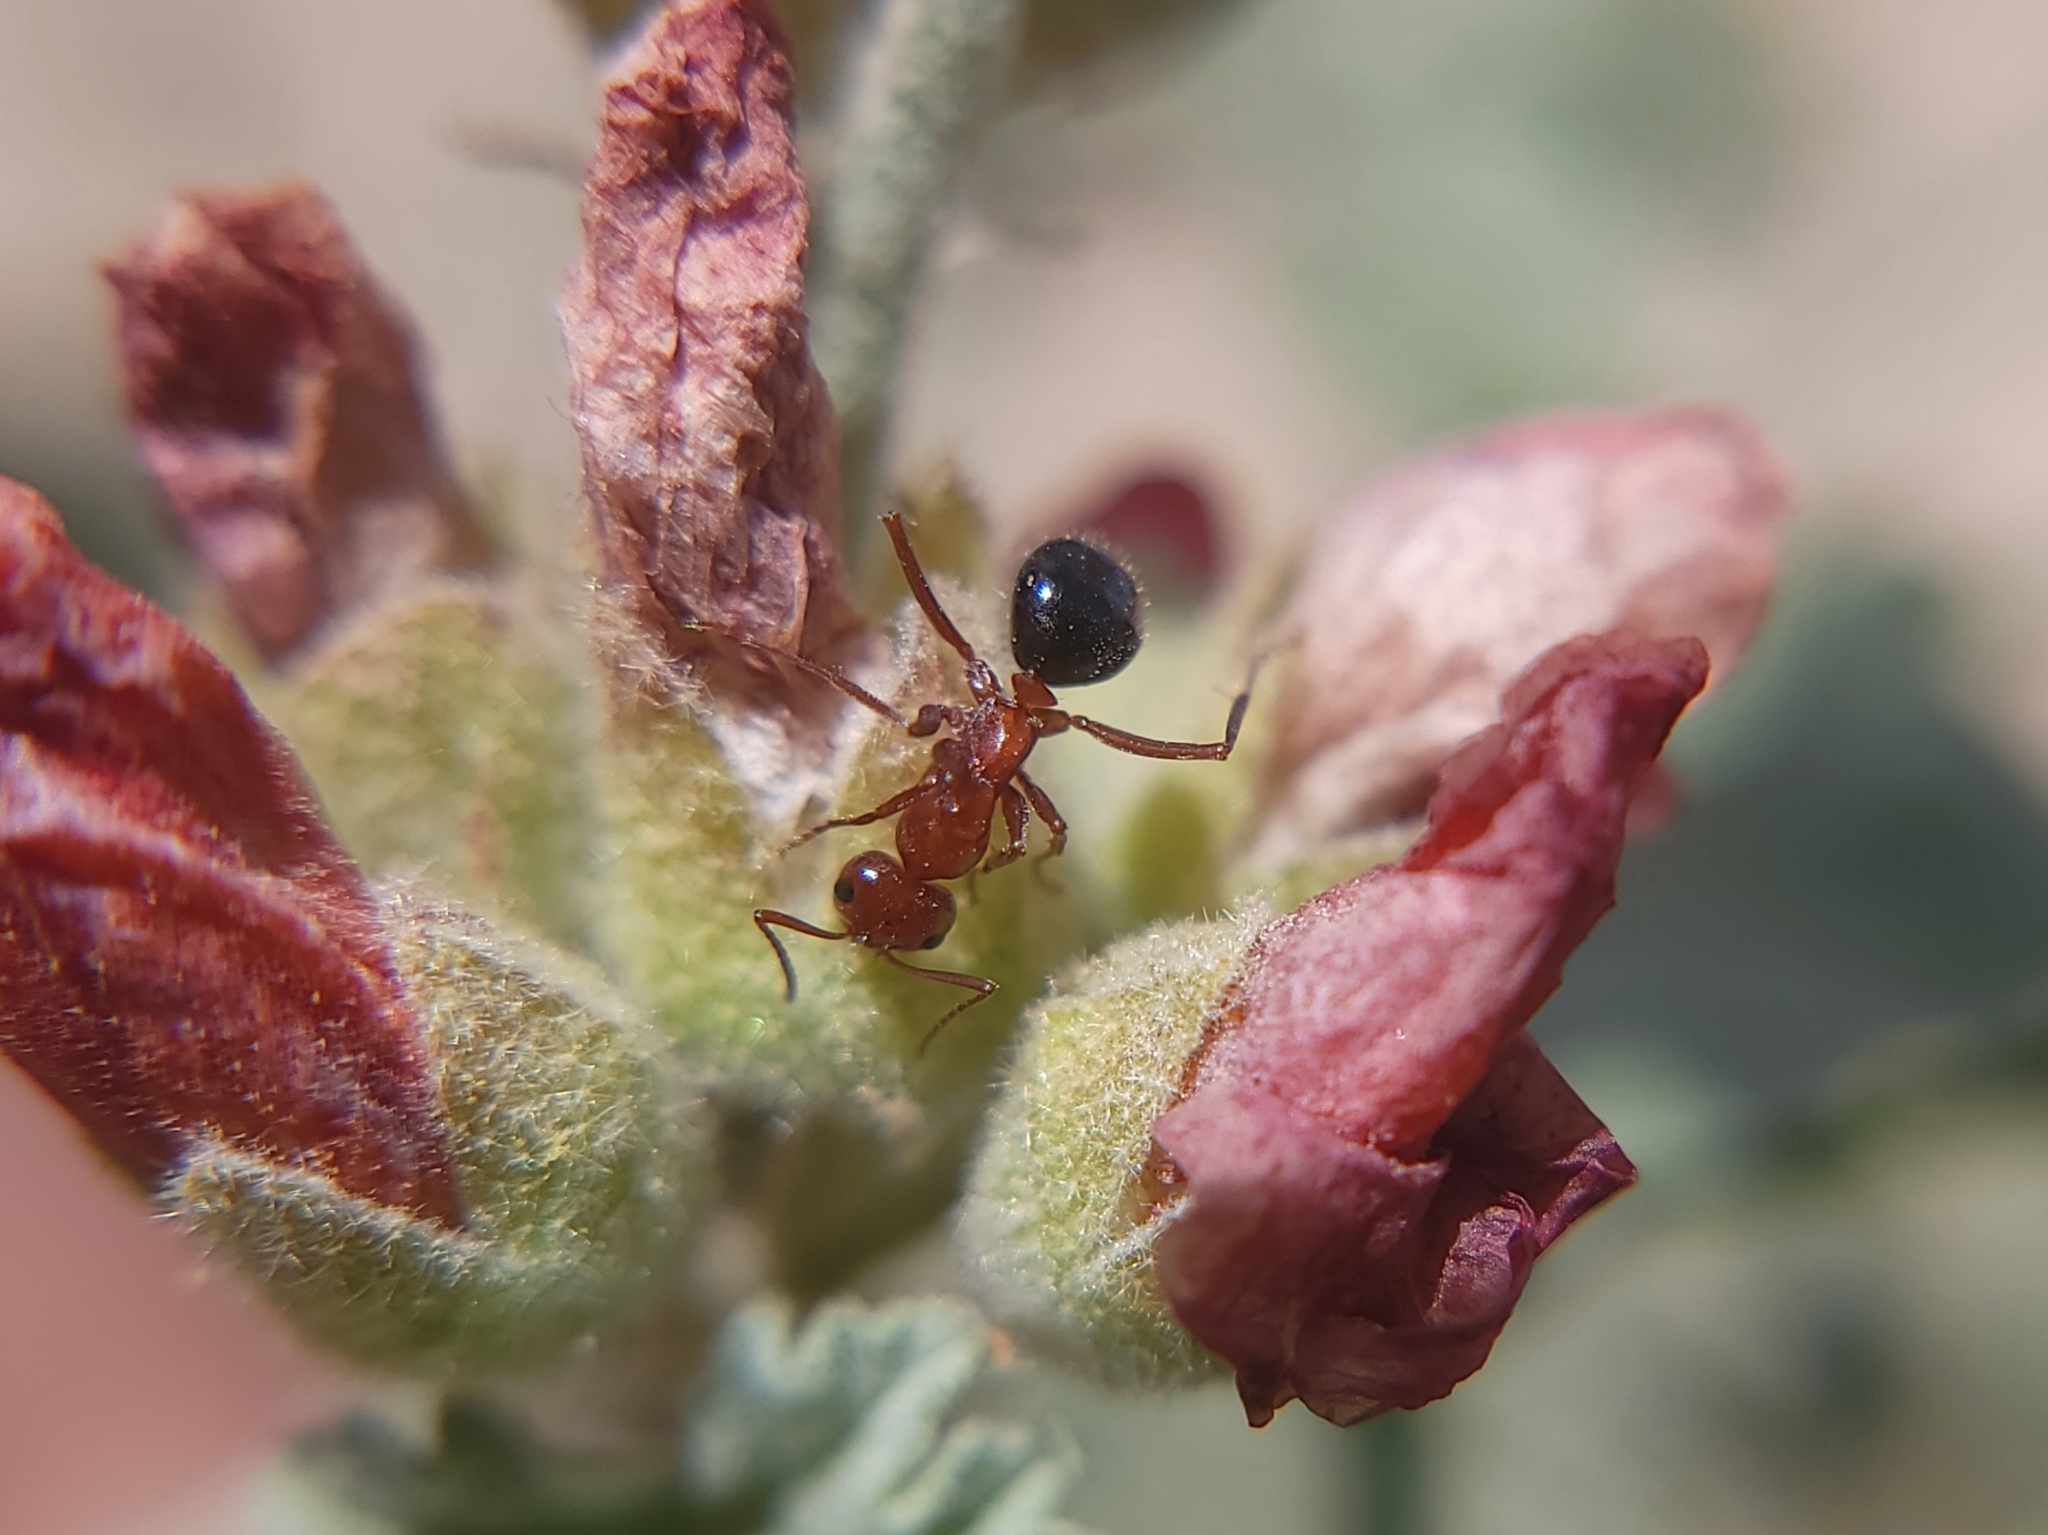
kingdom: Animalia
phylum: Arthropoda
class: Insecta
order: Hymenoptera
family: Formicidae
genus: Formica
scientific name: Formica perpilosa
